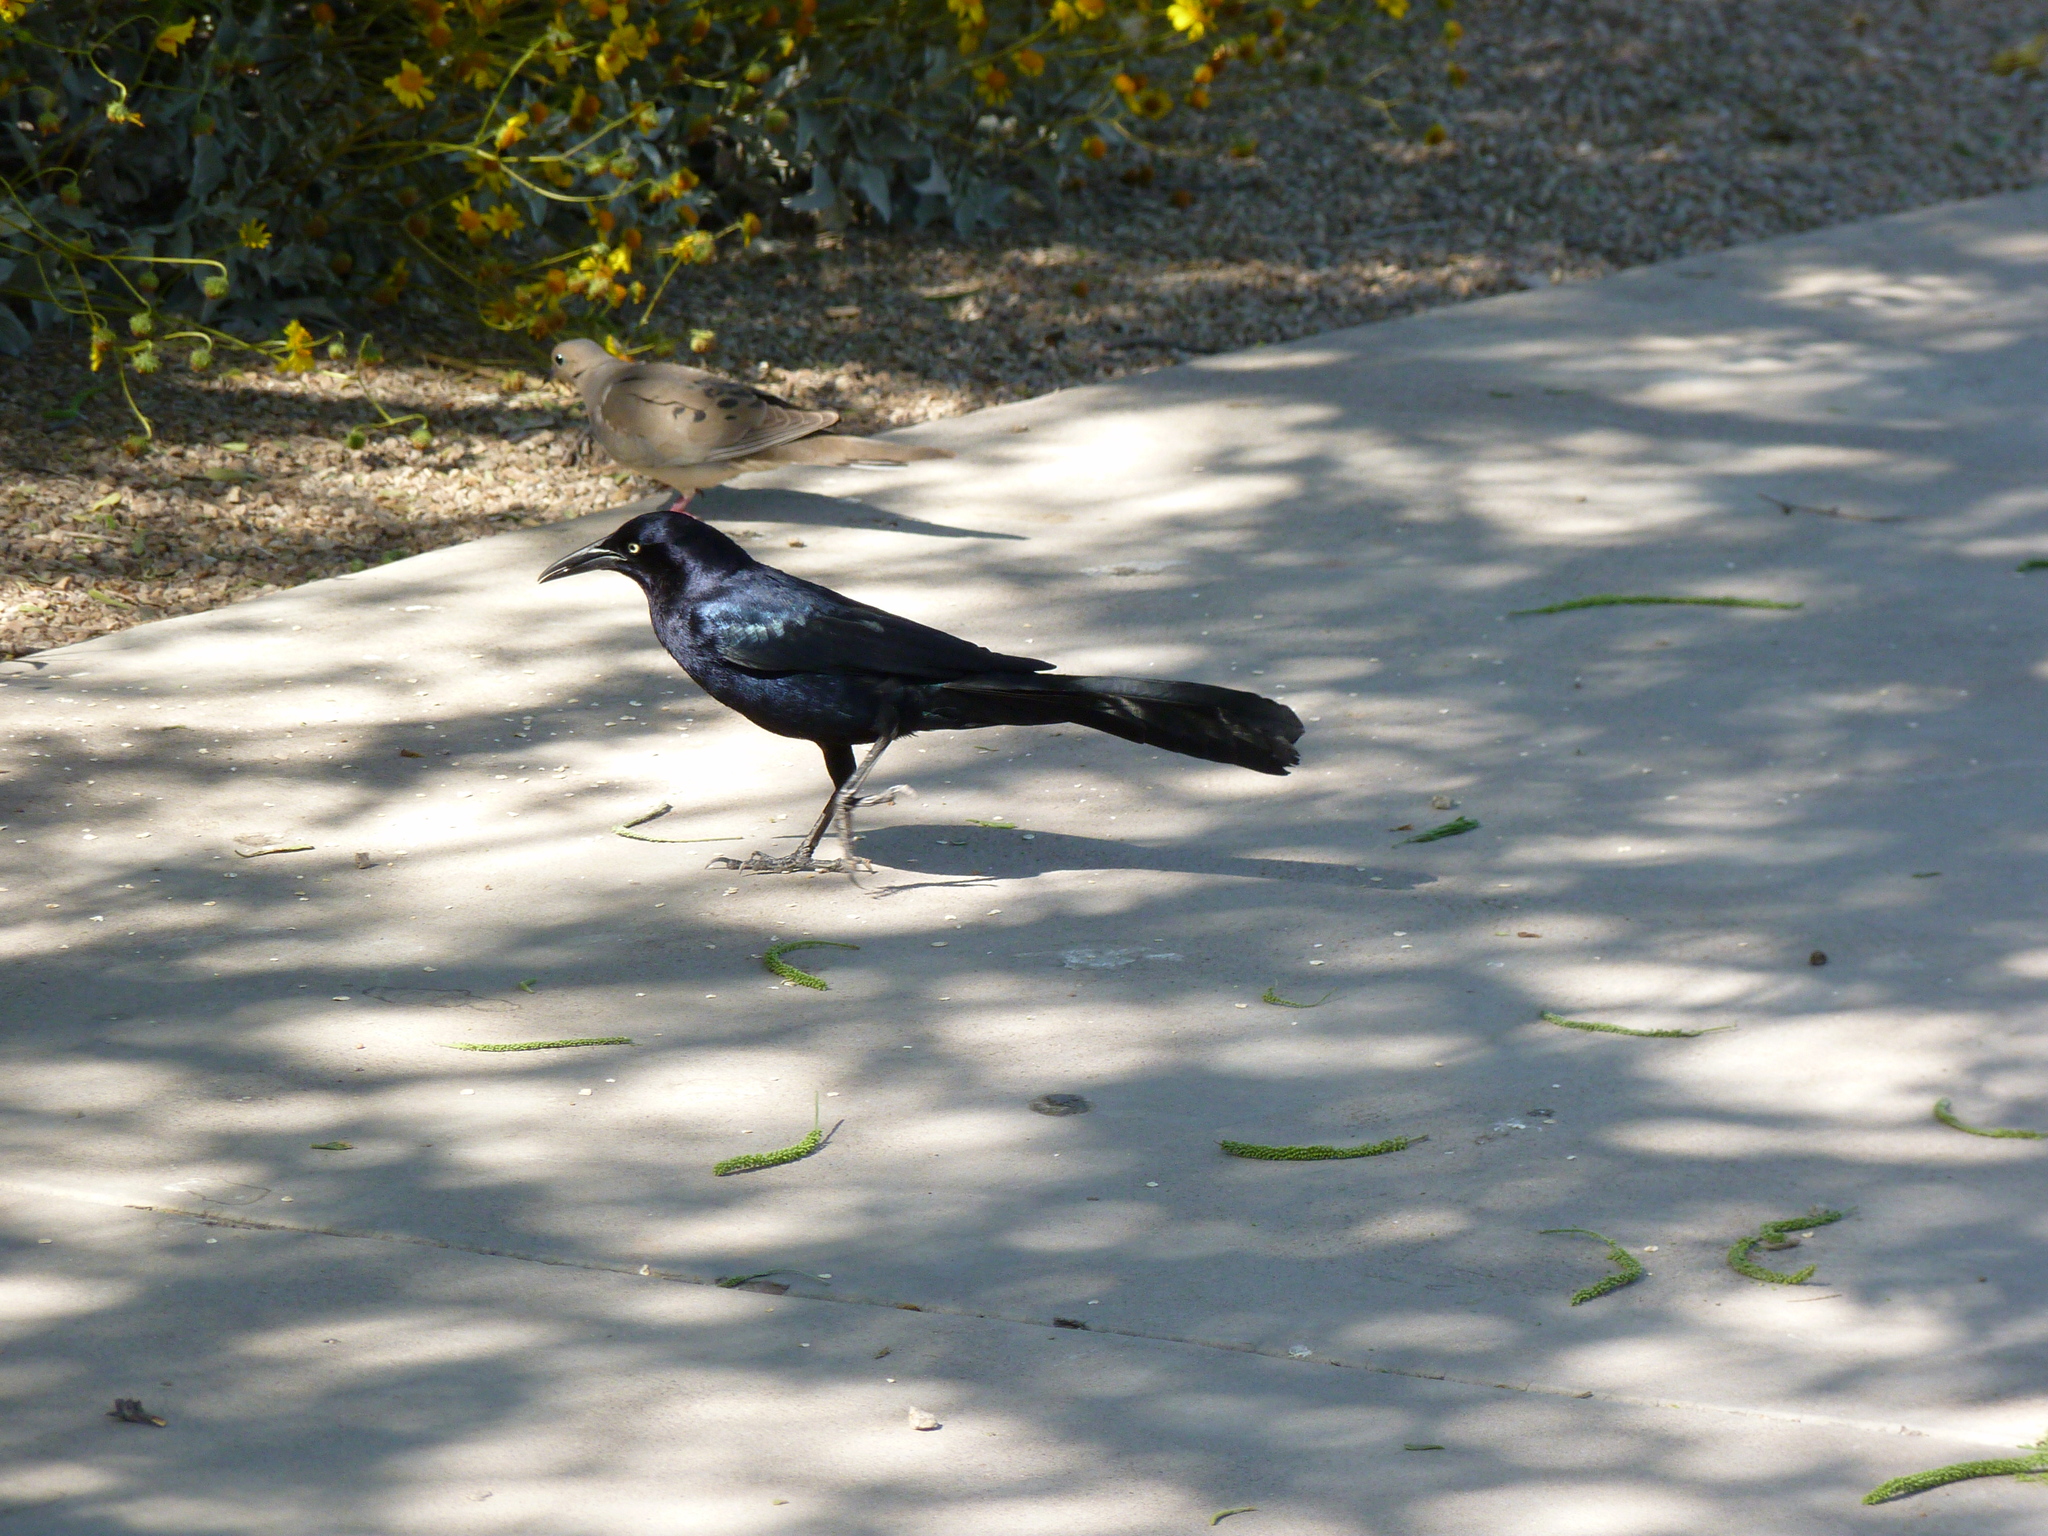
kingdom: Animalia
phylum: Chordata
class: Aves
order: Passeriformes
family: Icteridae
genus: Quiscalus
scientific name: Quiscalus mexicanus
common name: Great-tailed grackle
